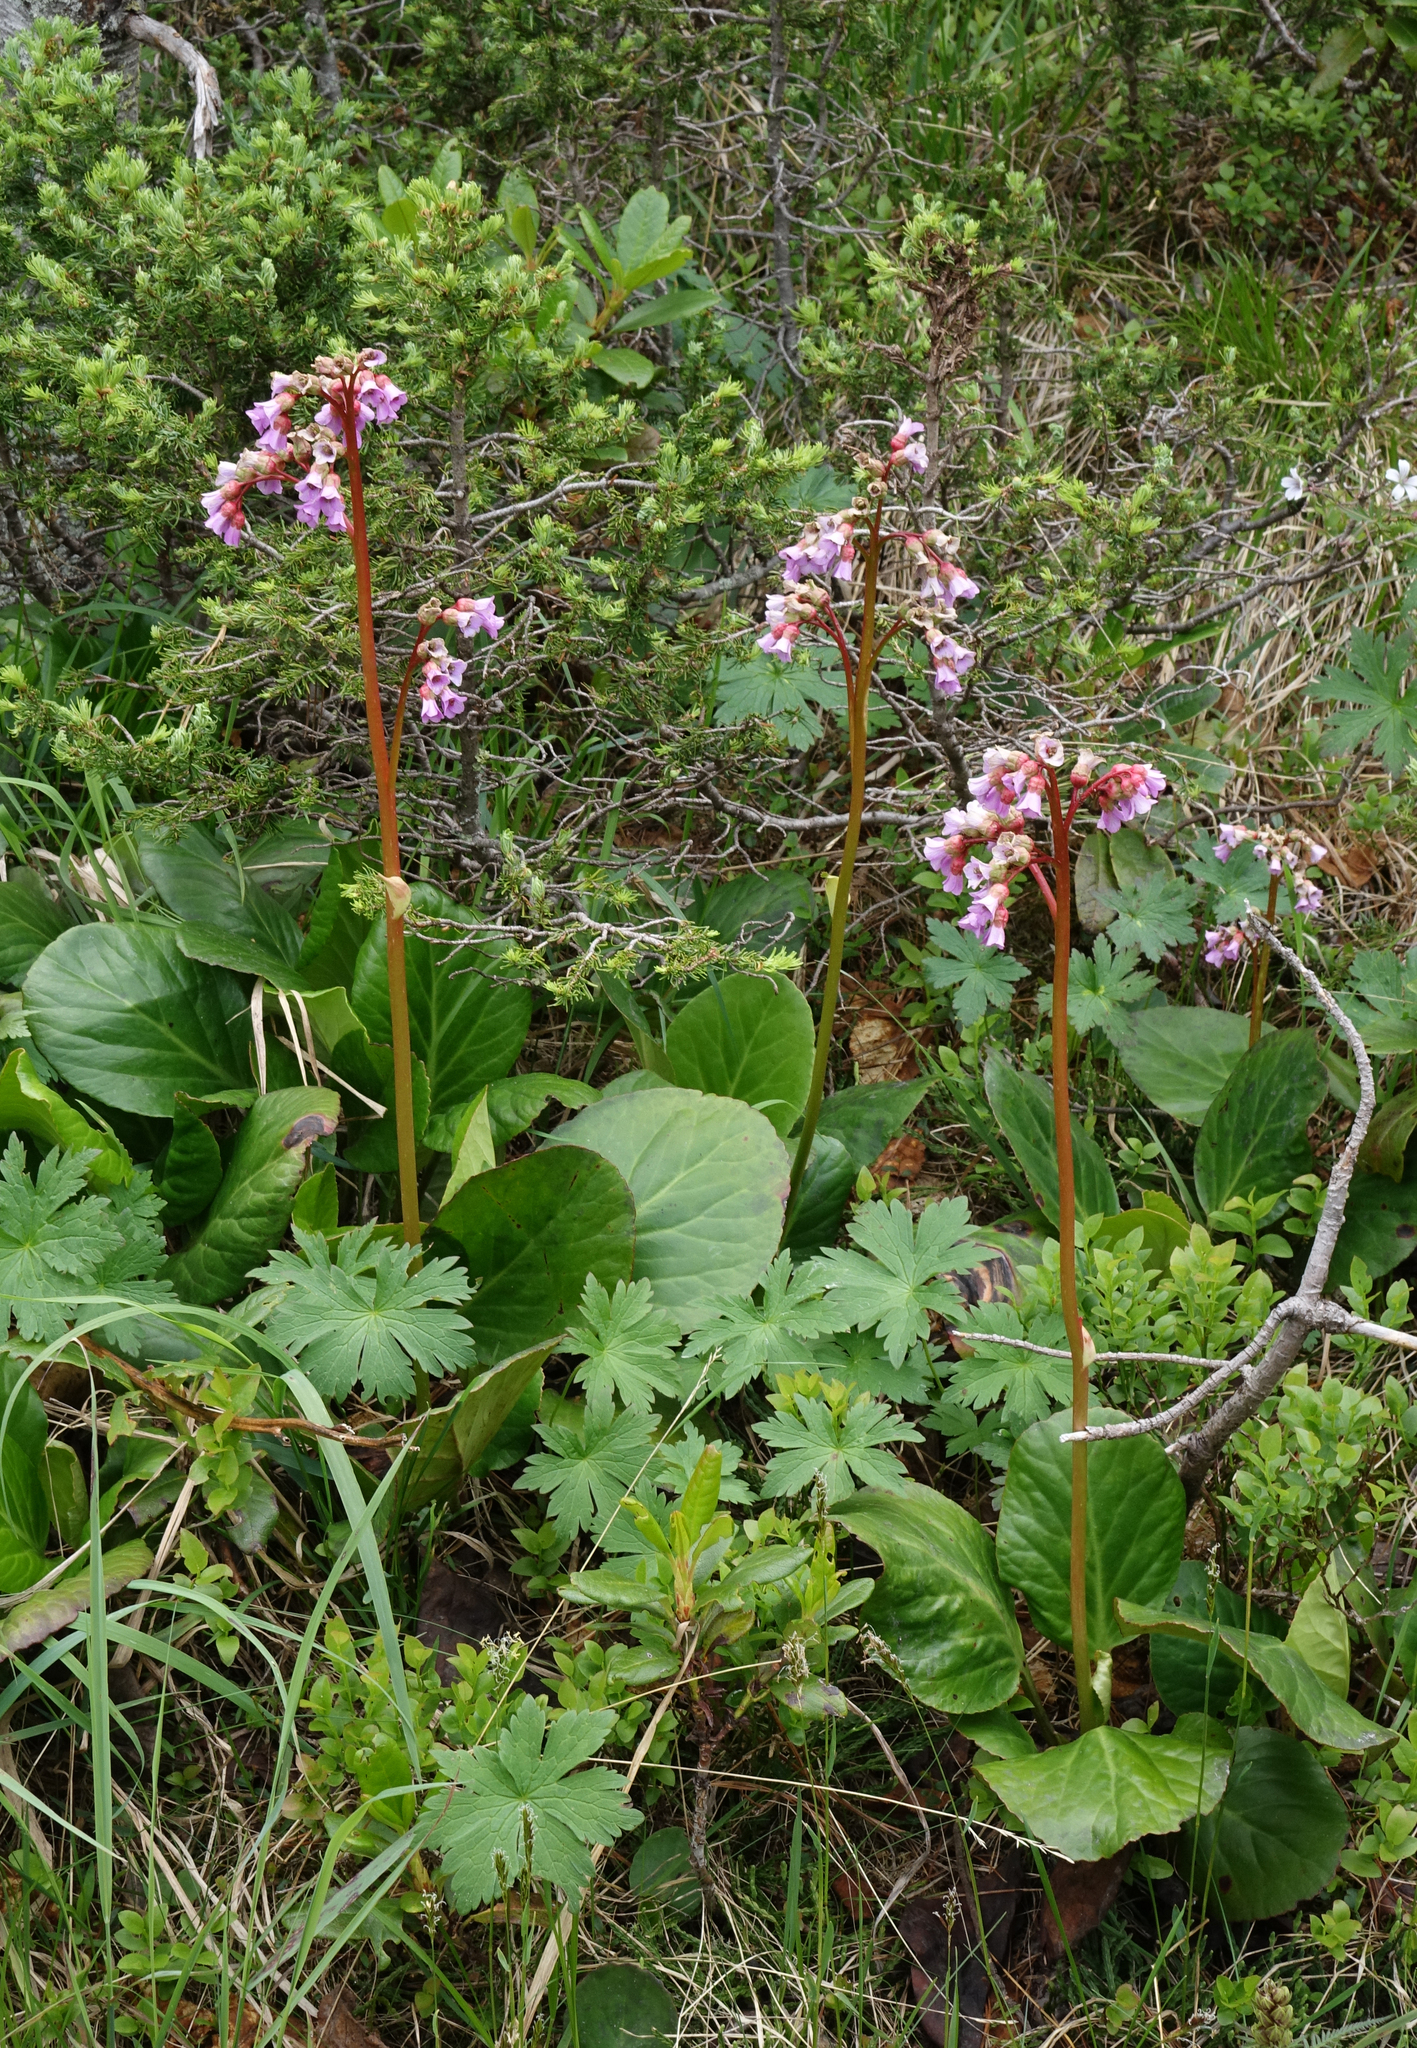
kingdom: Plantae
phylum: Tracheophyta
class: Magnoliopsida
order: Saxifragales
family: Saxifragaceae
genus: Bergenia
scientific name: Bergenia crassifolia
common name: Elephant-ears
